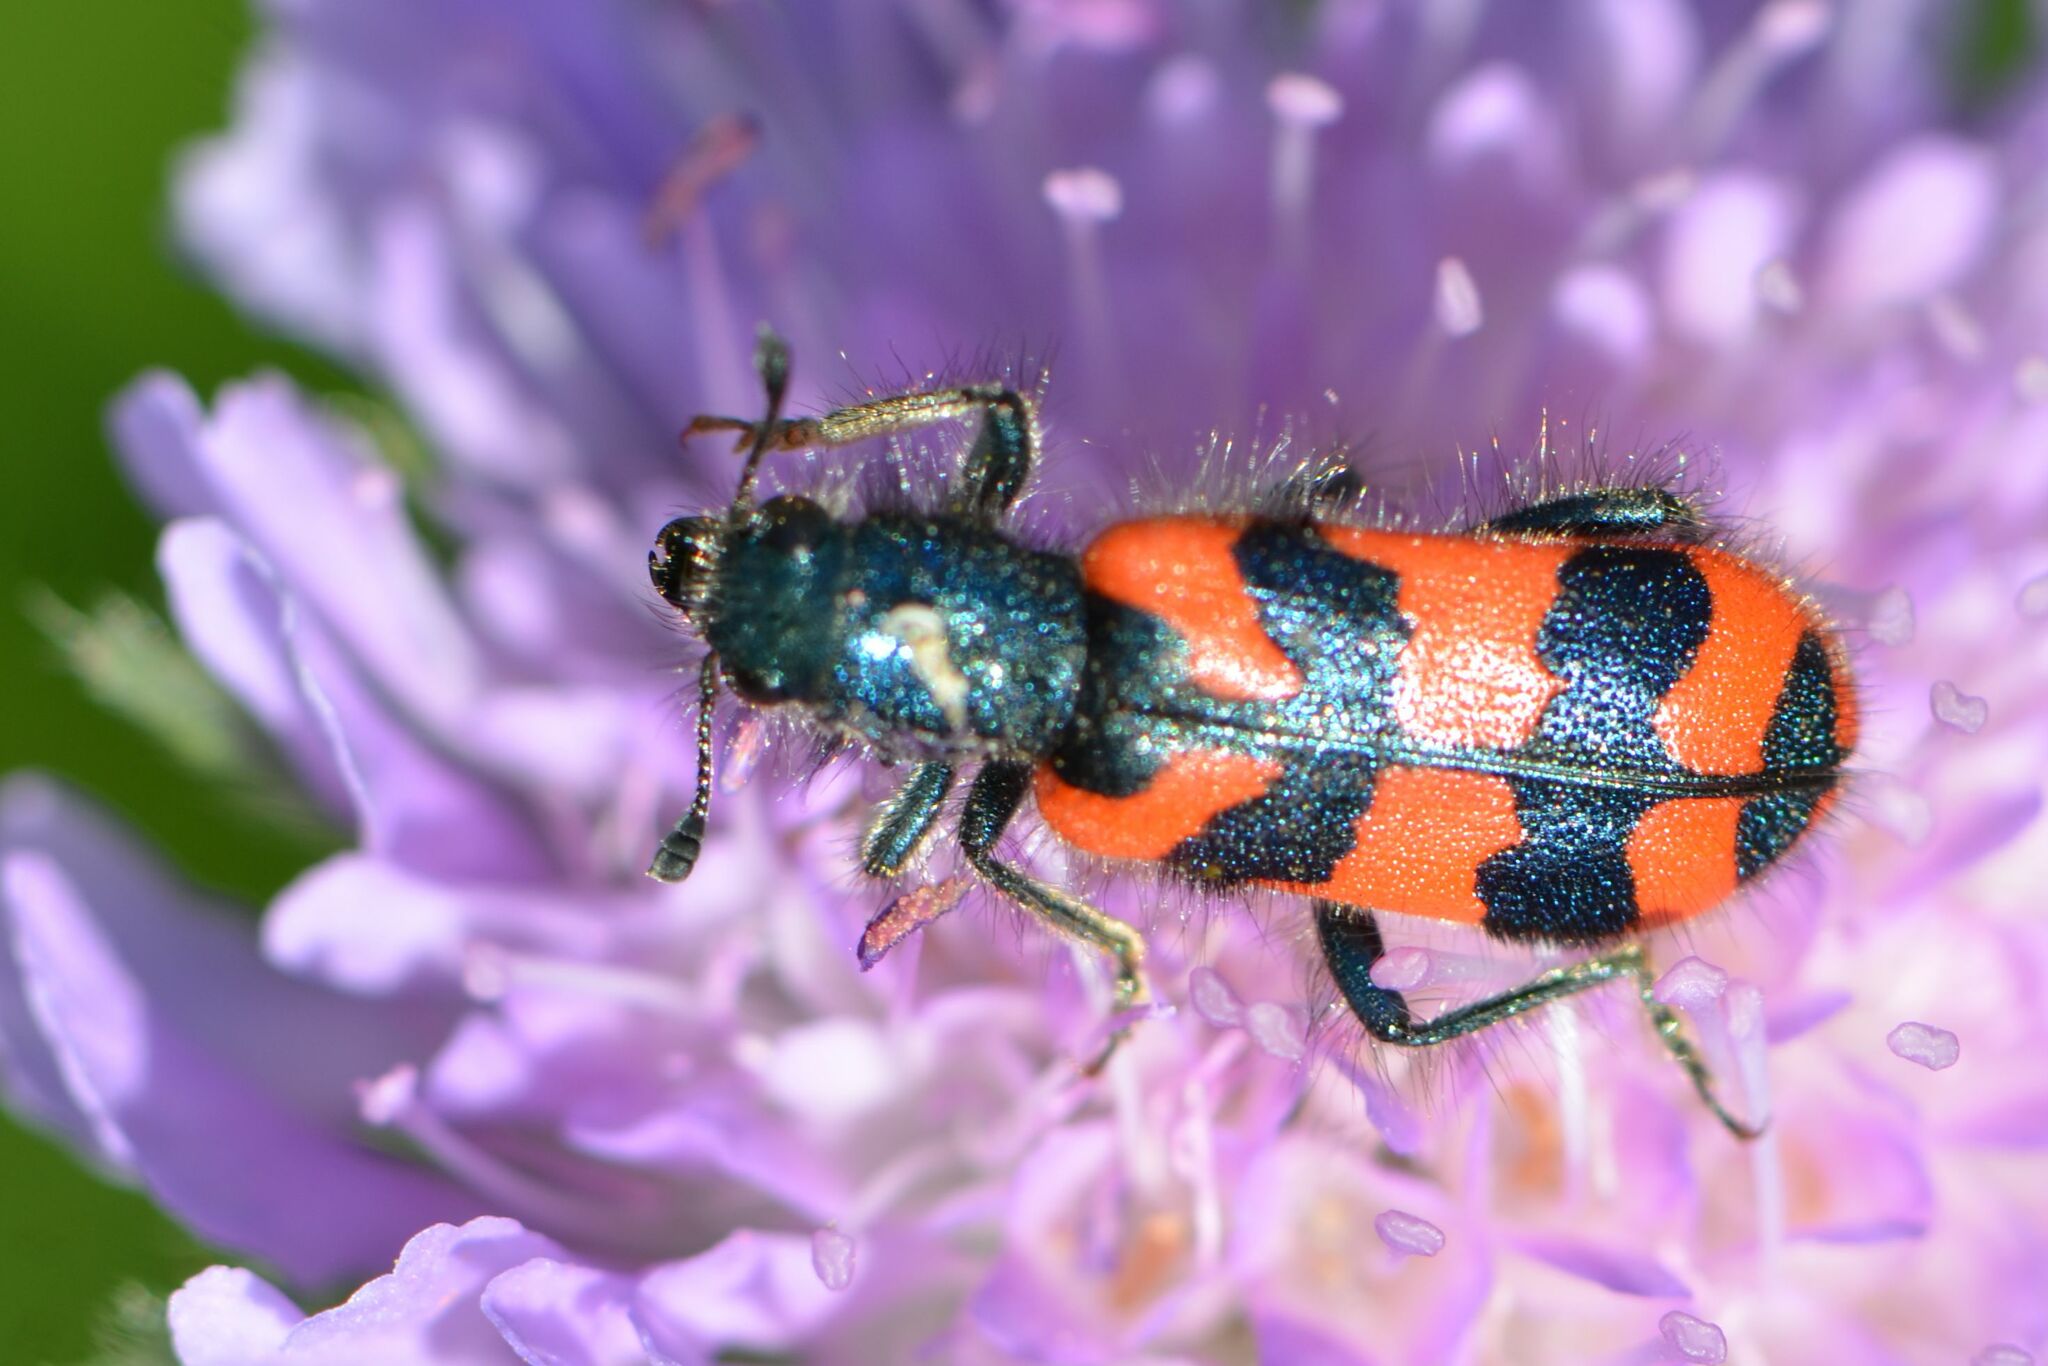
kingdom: Animalia
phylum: Arthropoda
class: Insecta
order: Coleoptera
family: Cleridae
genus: Trichodes
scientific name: Trichodes alvearius
